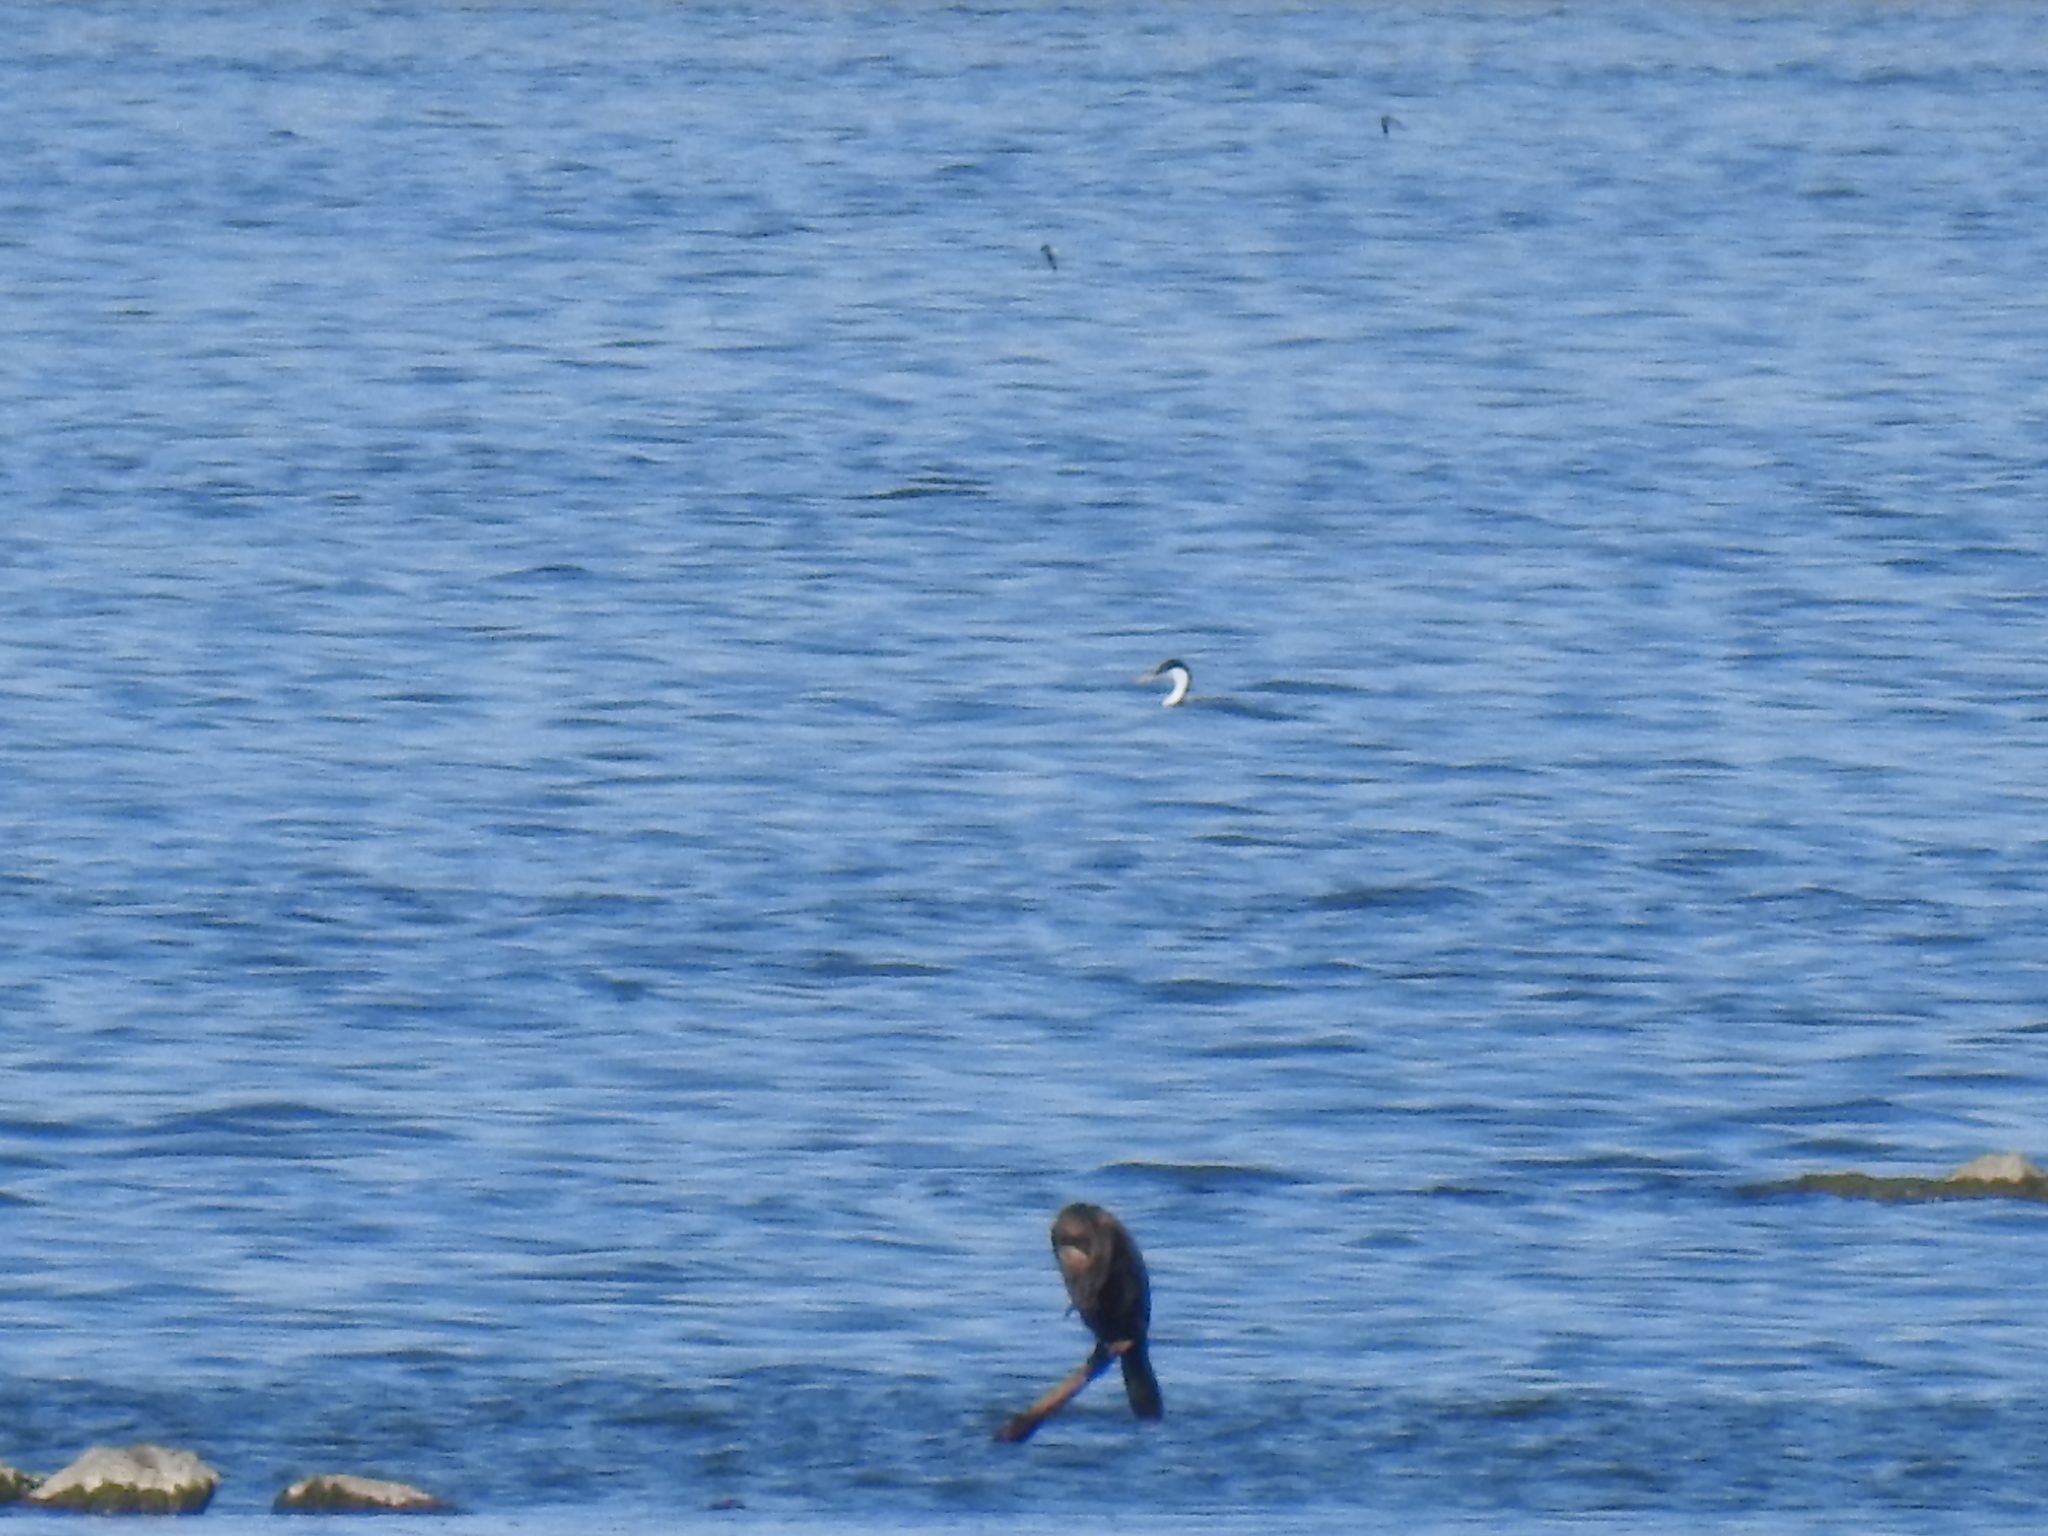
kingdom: Animalia
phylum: Chordata
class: Aves
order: Suliformes
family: Phalacrocoracidae
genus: Phalacrocorax
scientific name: Phalacrocorax auritus
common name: Double-crested cormorant
